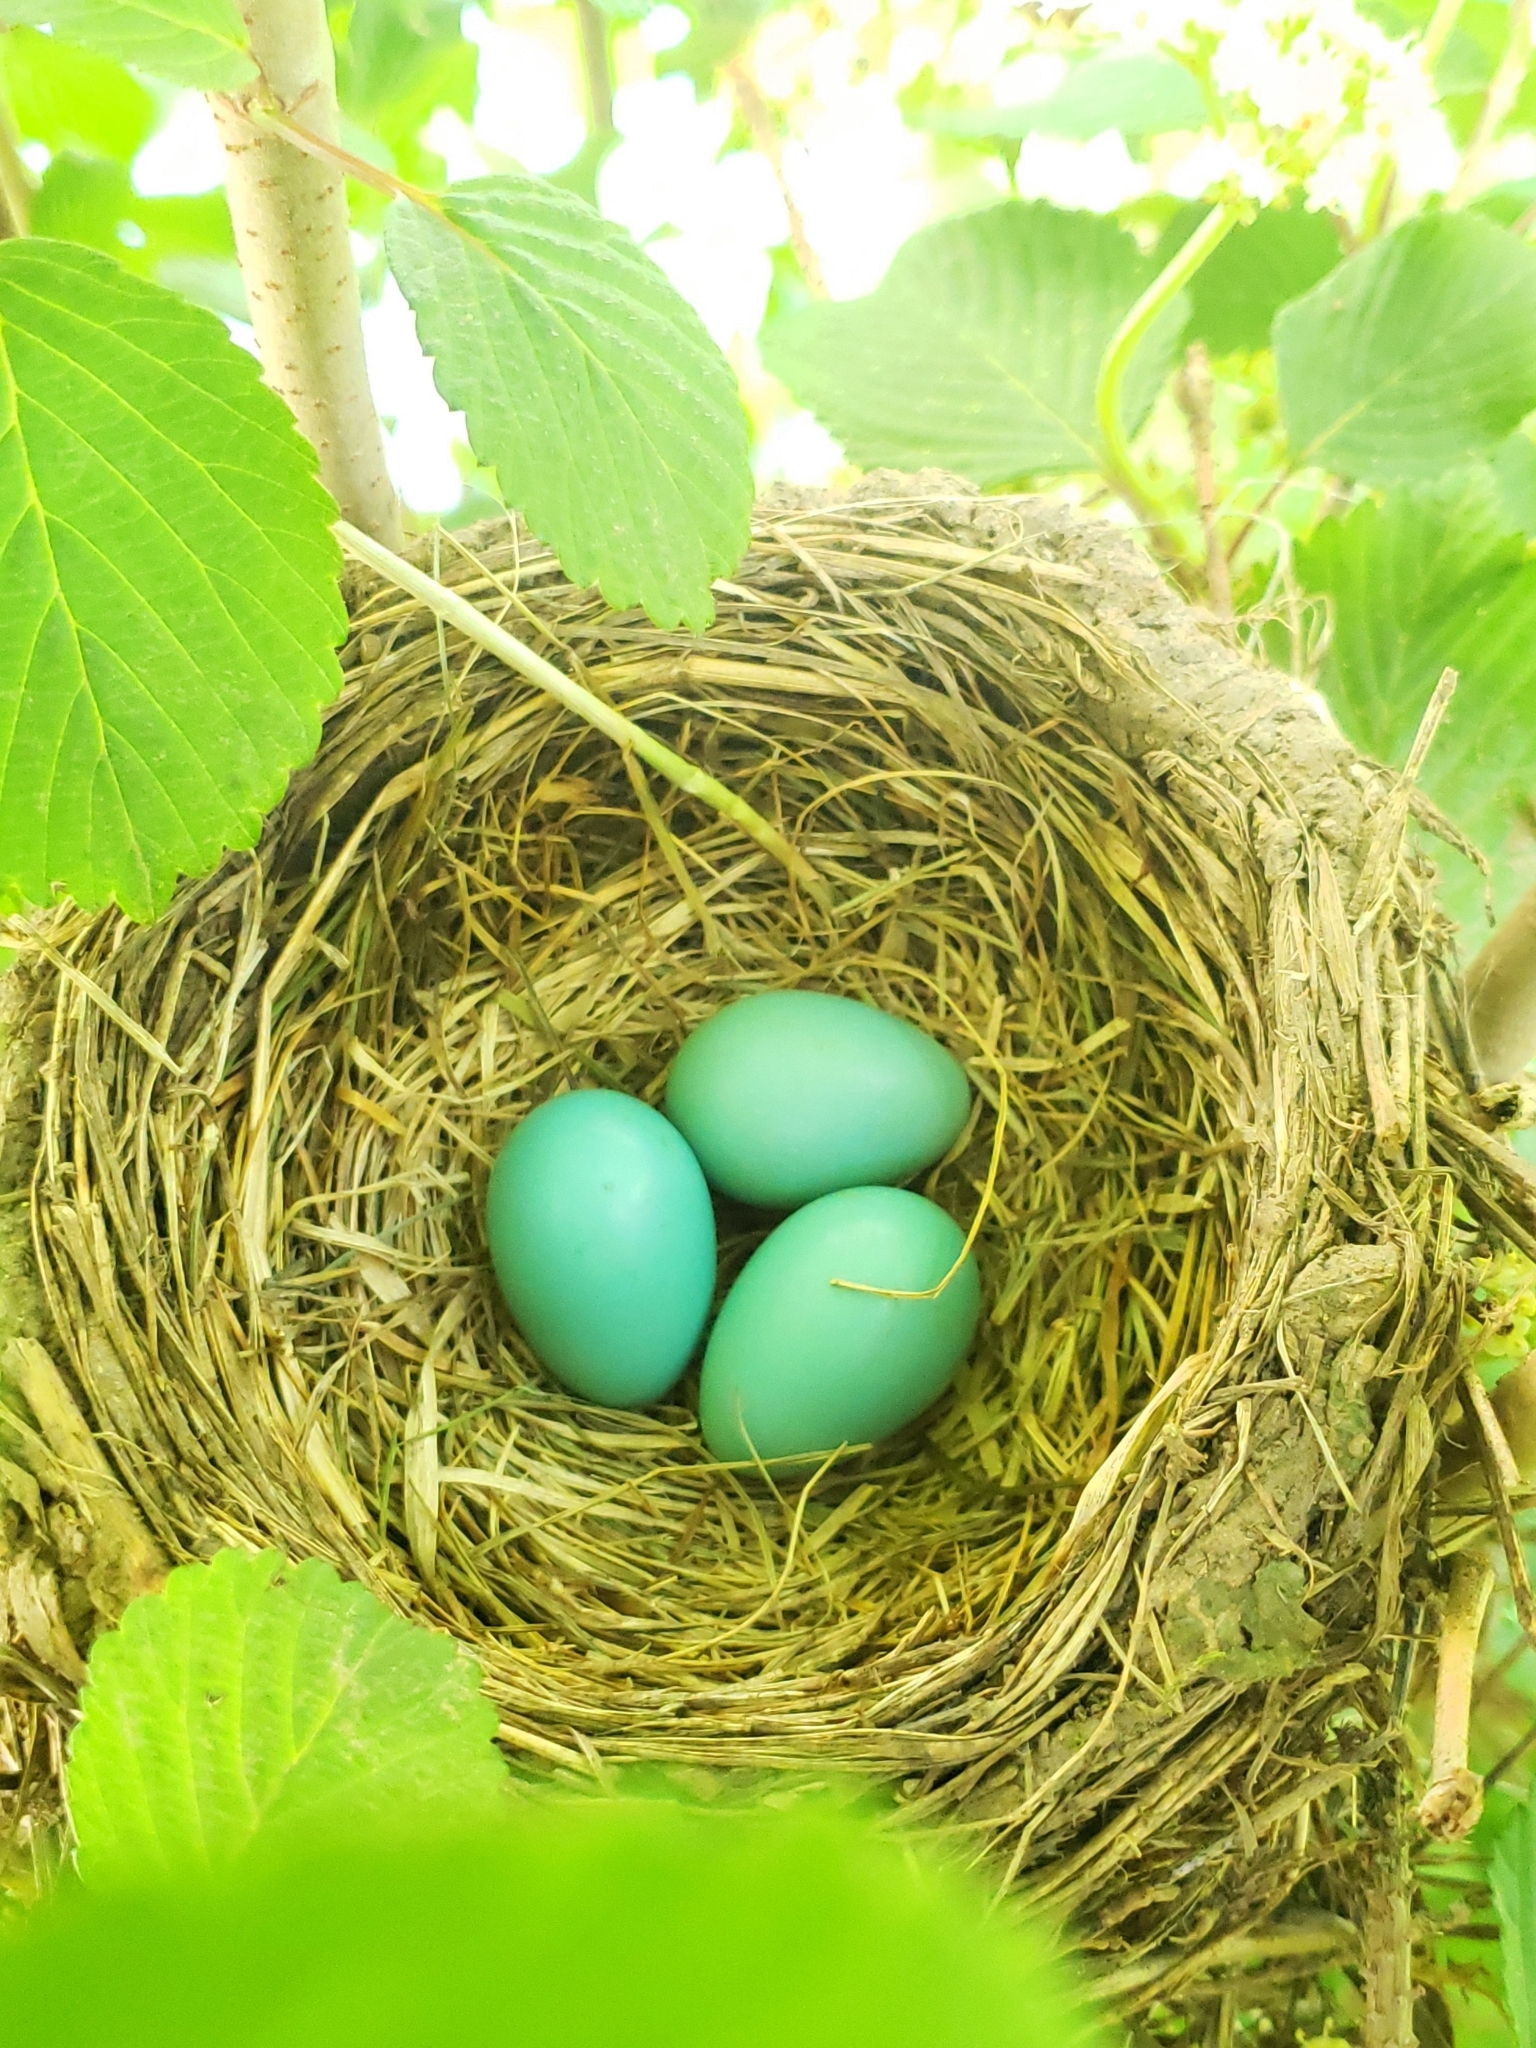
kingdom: Animalia
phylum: Chordata
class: Aves
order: Passeriformes
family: Turdidae
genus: Turdus
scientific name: Turdus migratorius
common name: American robin
